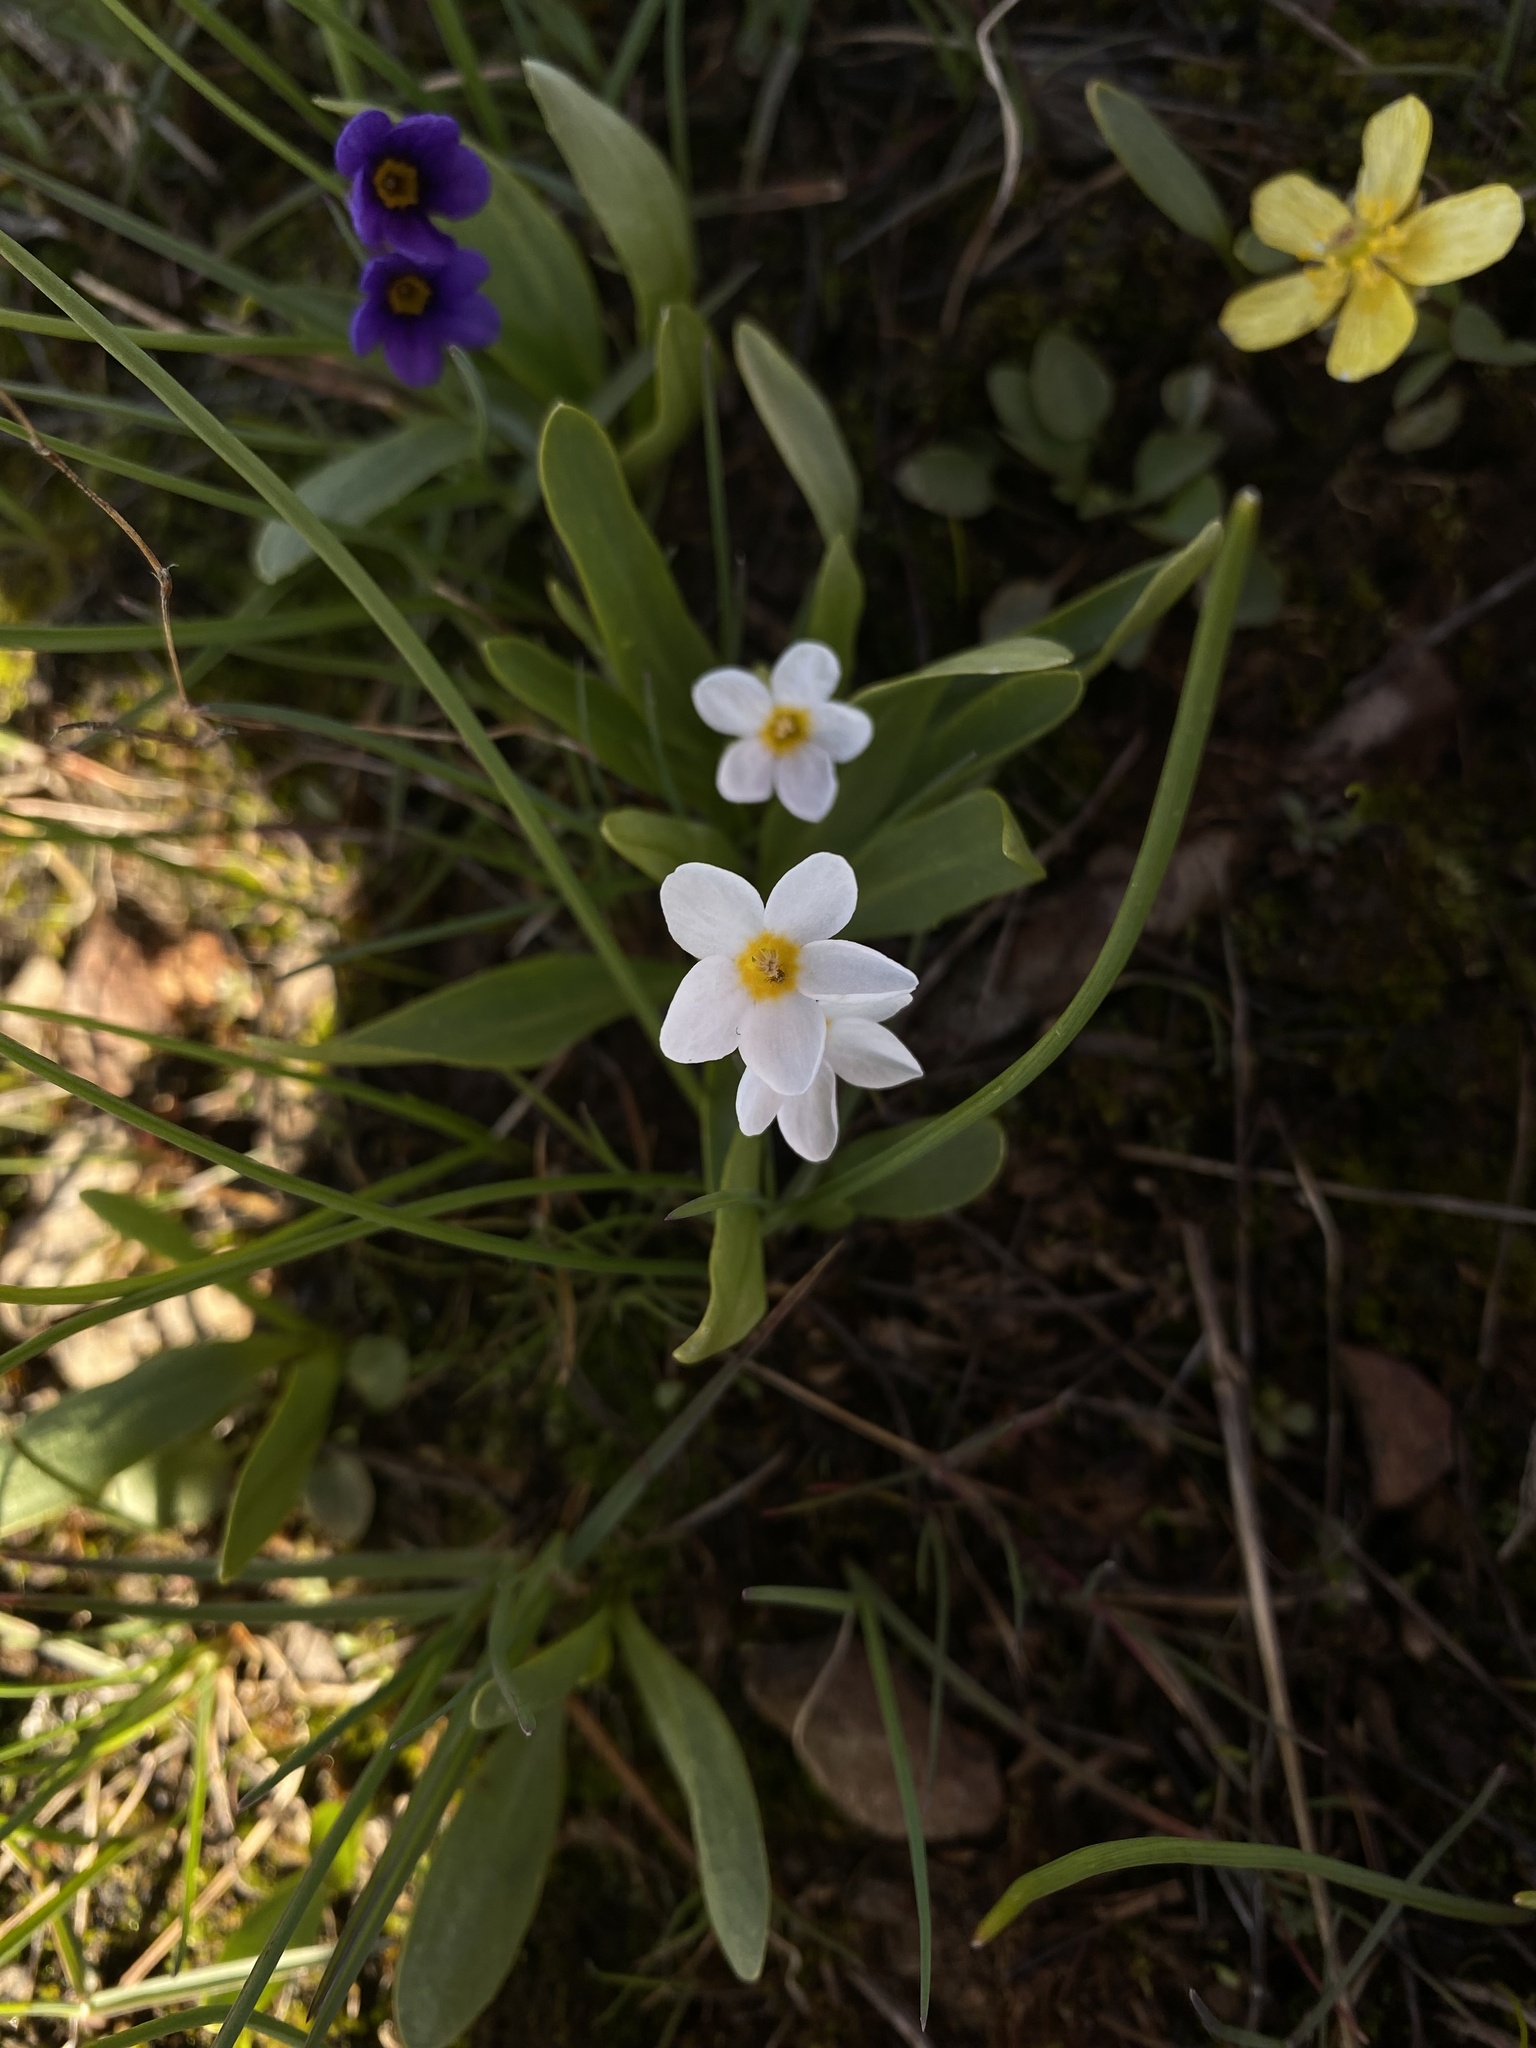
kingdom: Plantae
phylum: Tracheophyta
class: Magnoliopsida
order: Ericales
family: Primulaceae
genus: Primula
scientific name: Primula cusickiana
